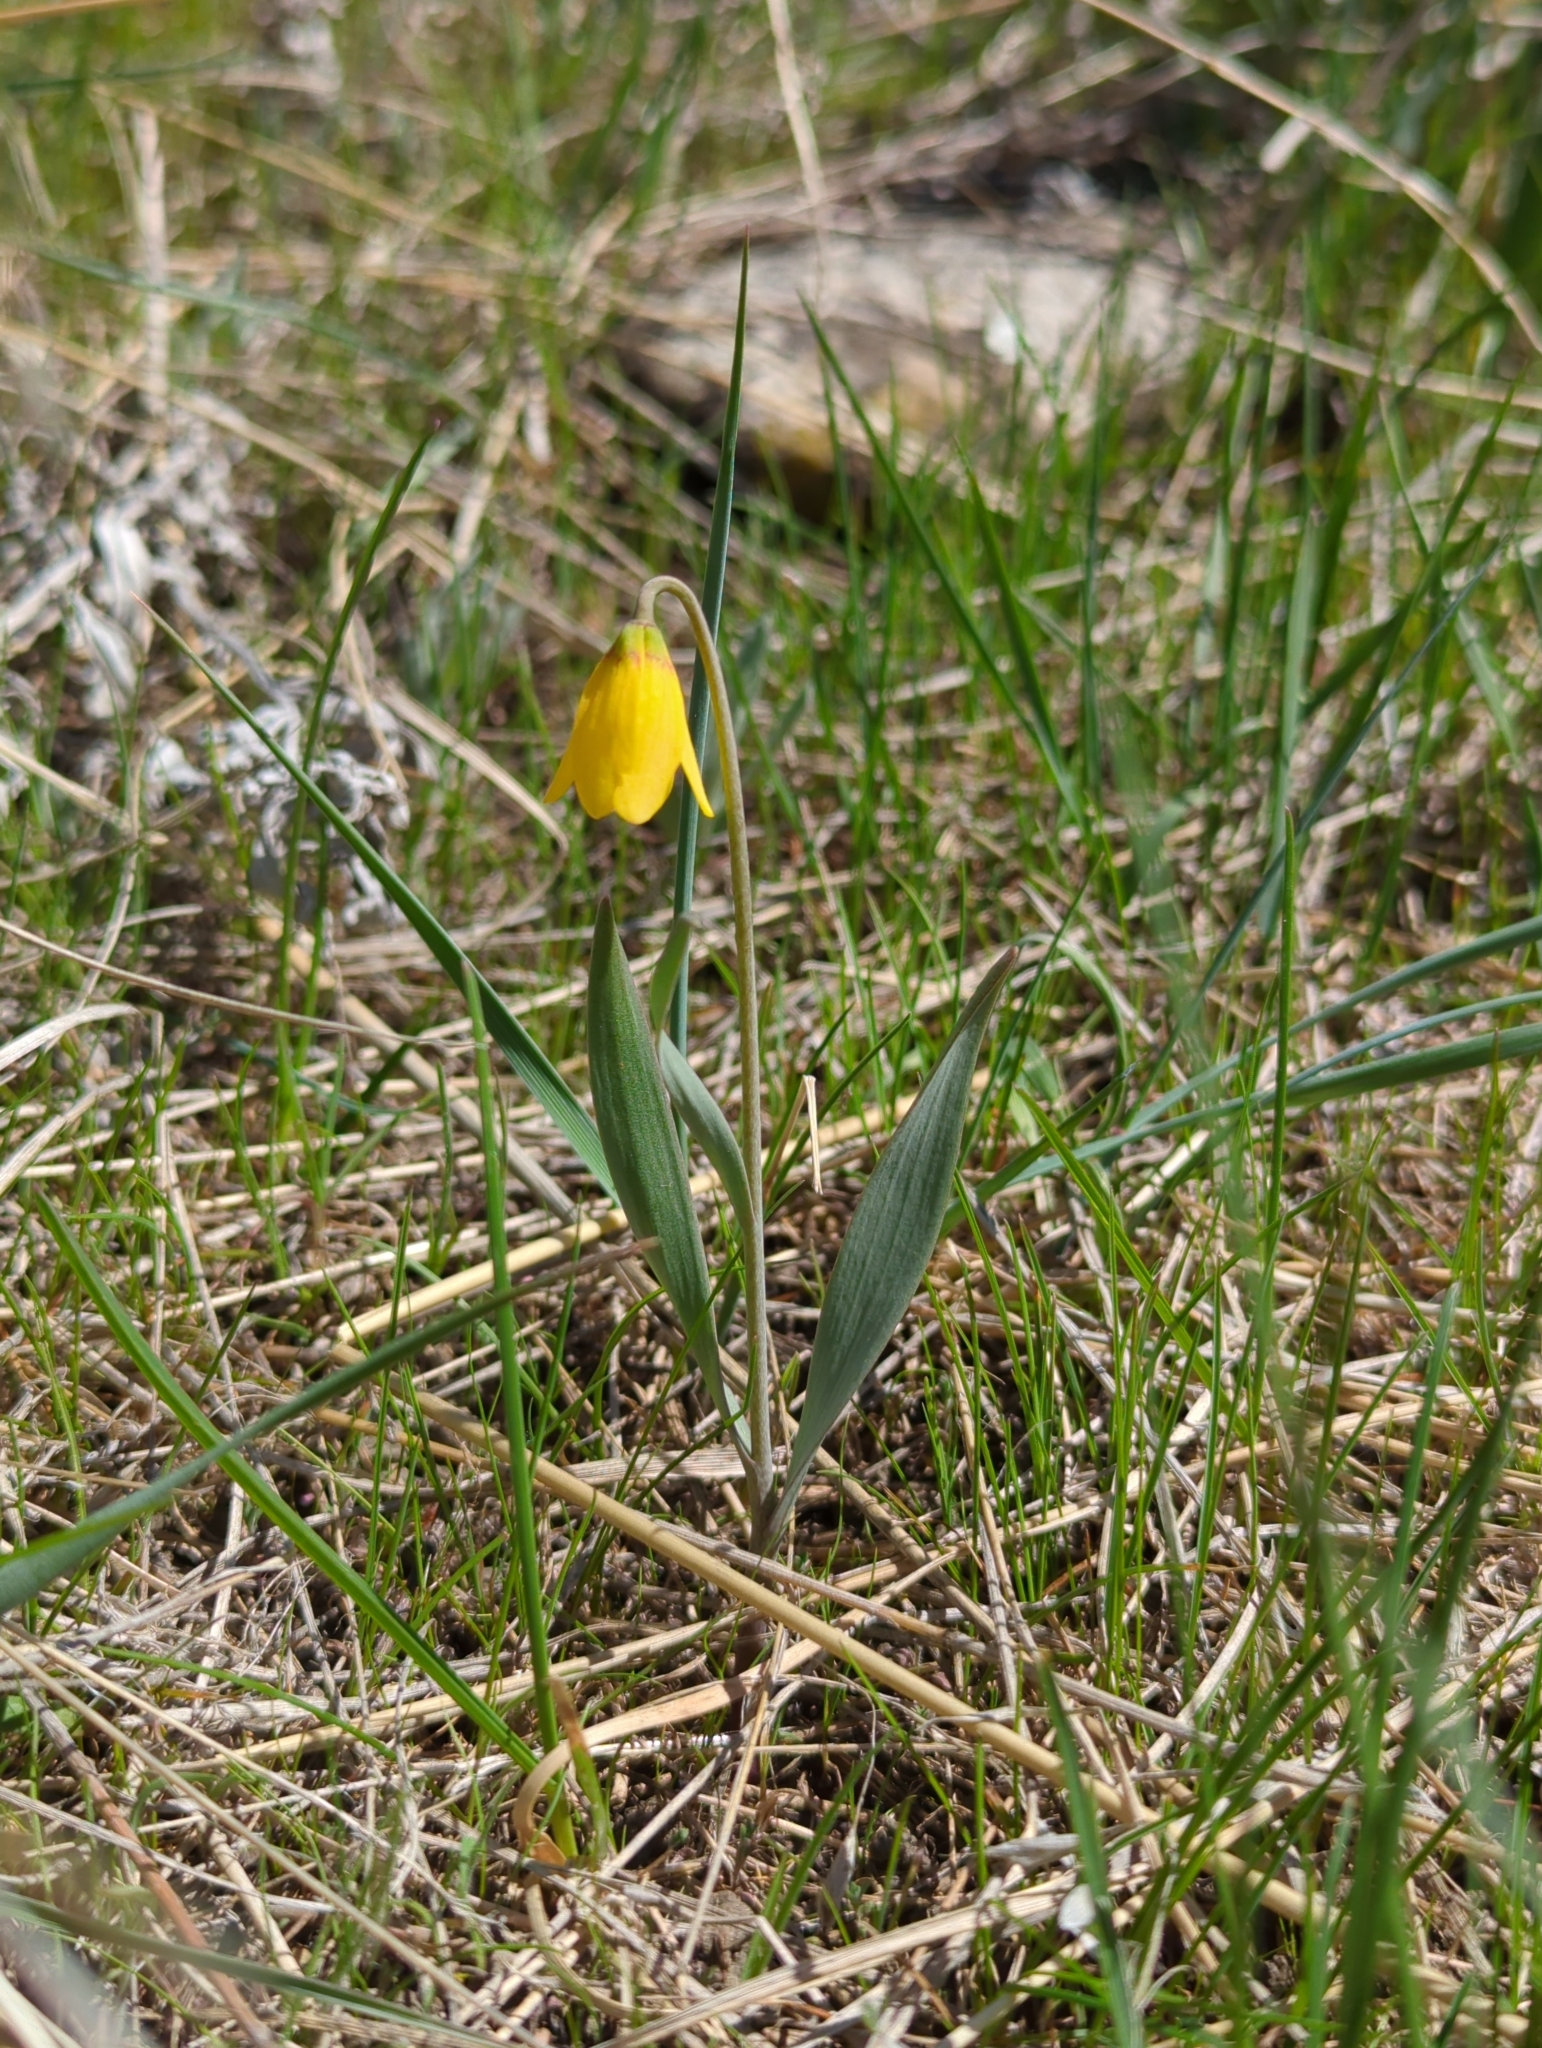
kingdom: Plantae
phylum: Tracheophyta
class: Liliopsida
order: Liliales
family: Liliaceae
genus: Fritillaria
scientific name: Fritillaria pudica
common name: Yellow fritillary
